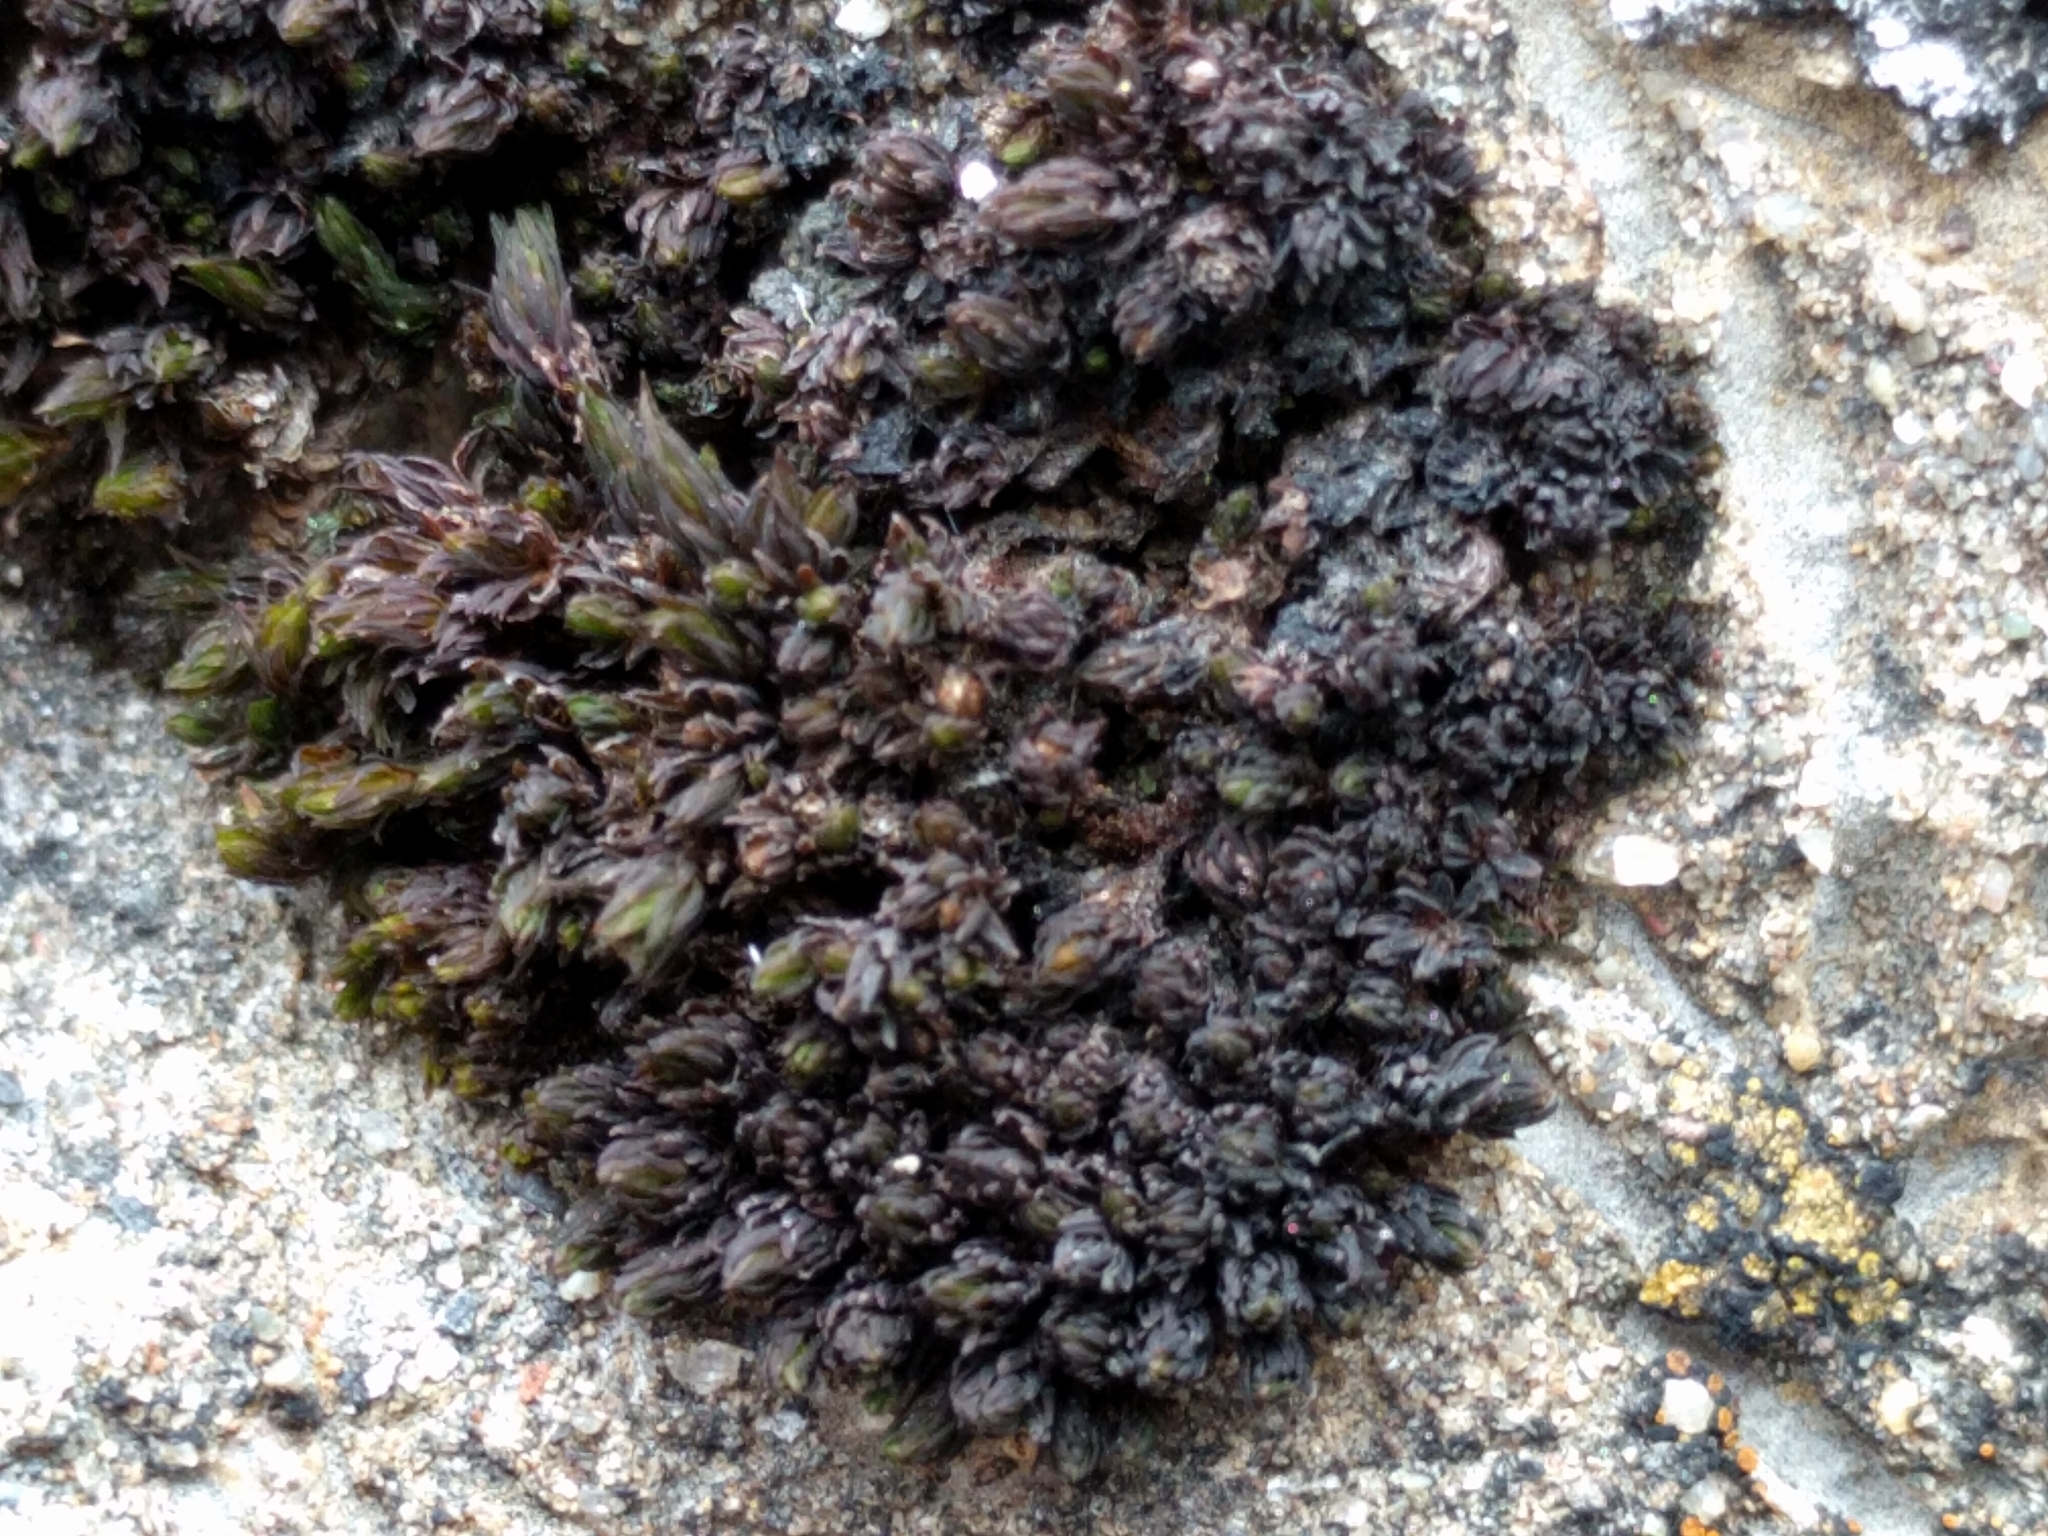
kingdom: Plantae
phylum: Bryophyta
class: Bryopsida
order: Orthotrichales
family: Orthotrichaceae
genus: Orthotrichum
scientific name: Orthotrichum shevockii
